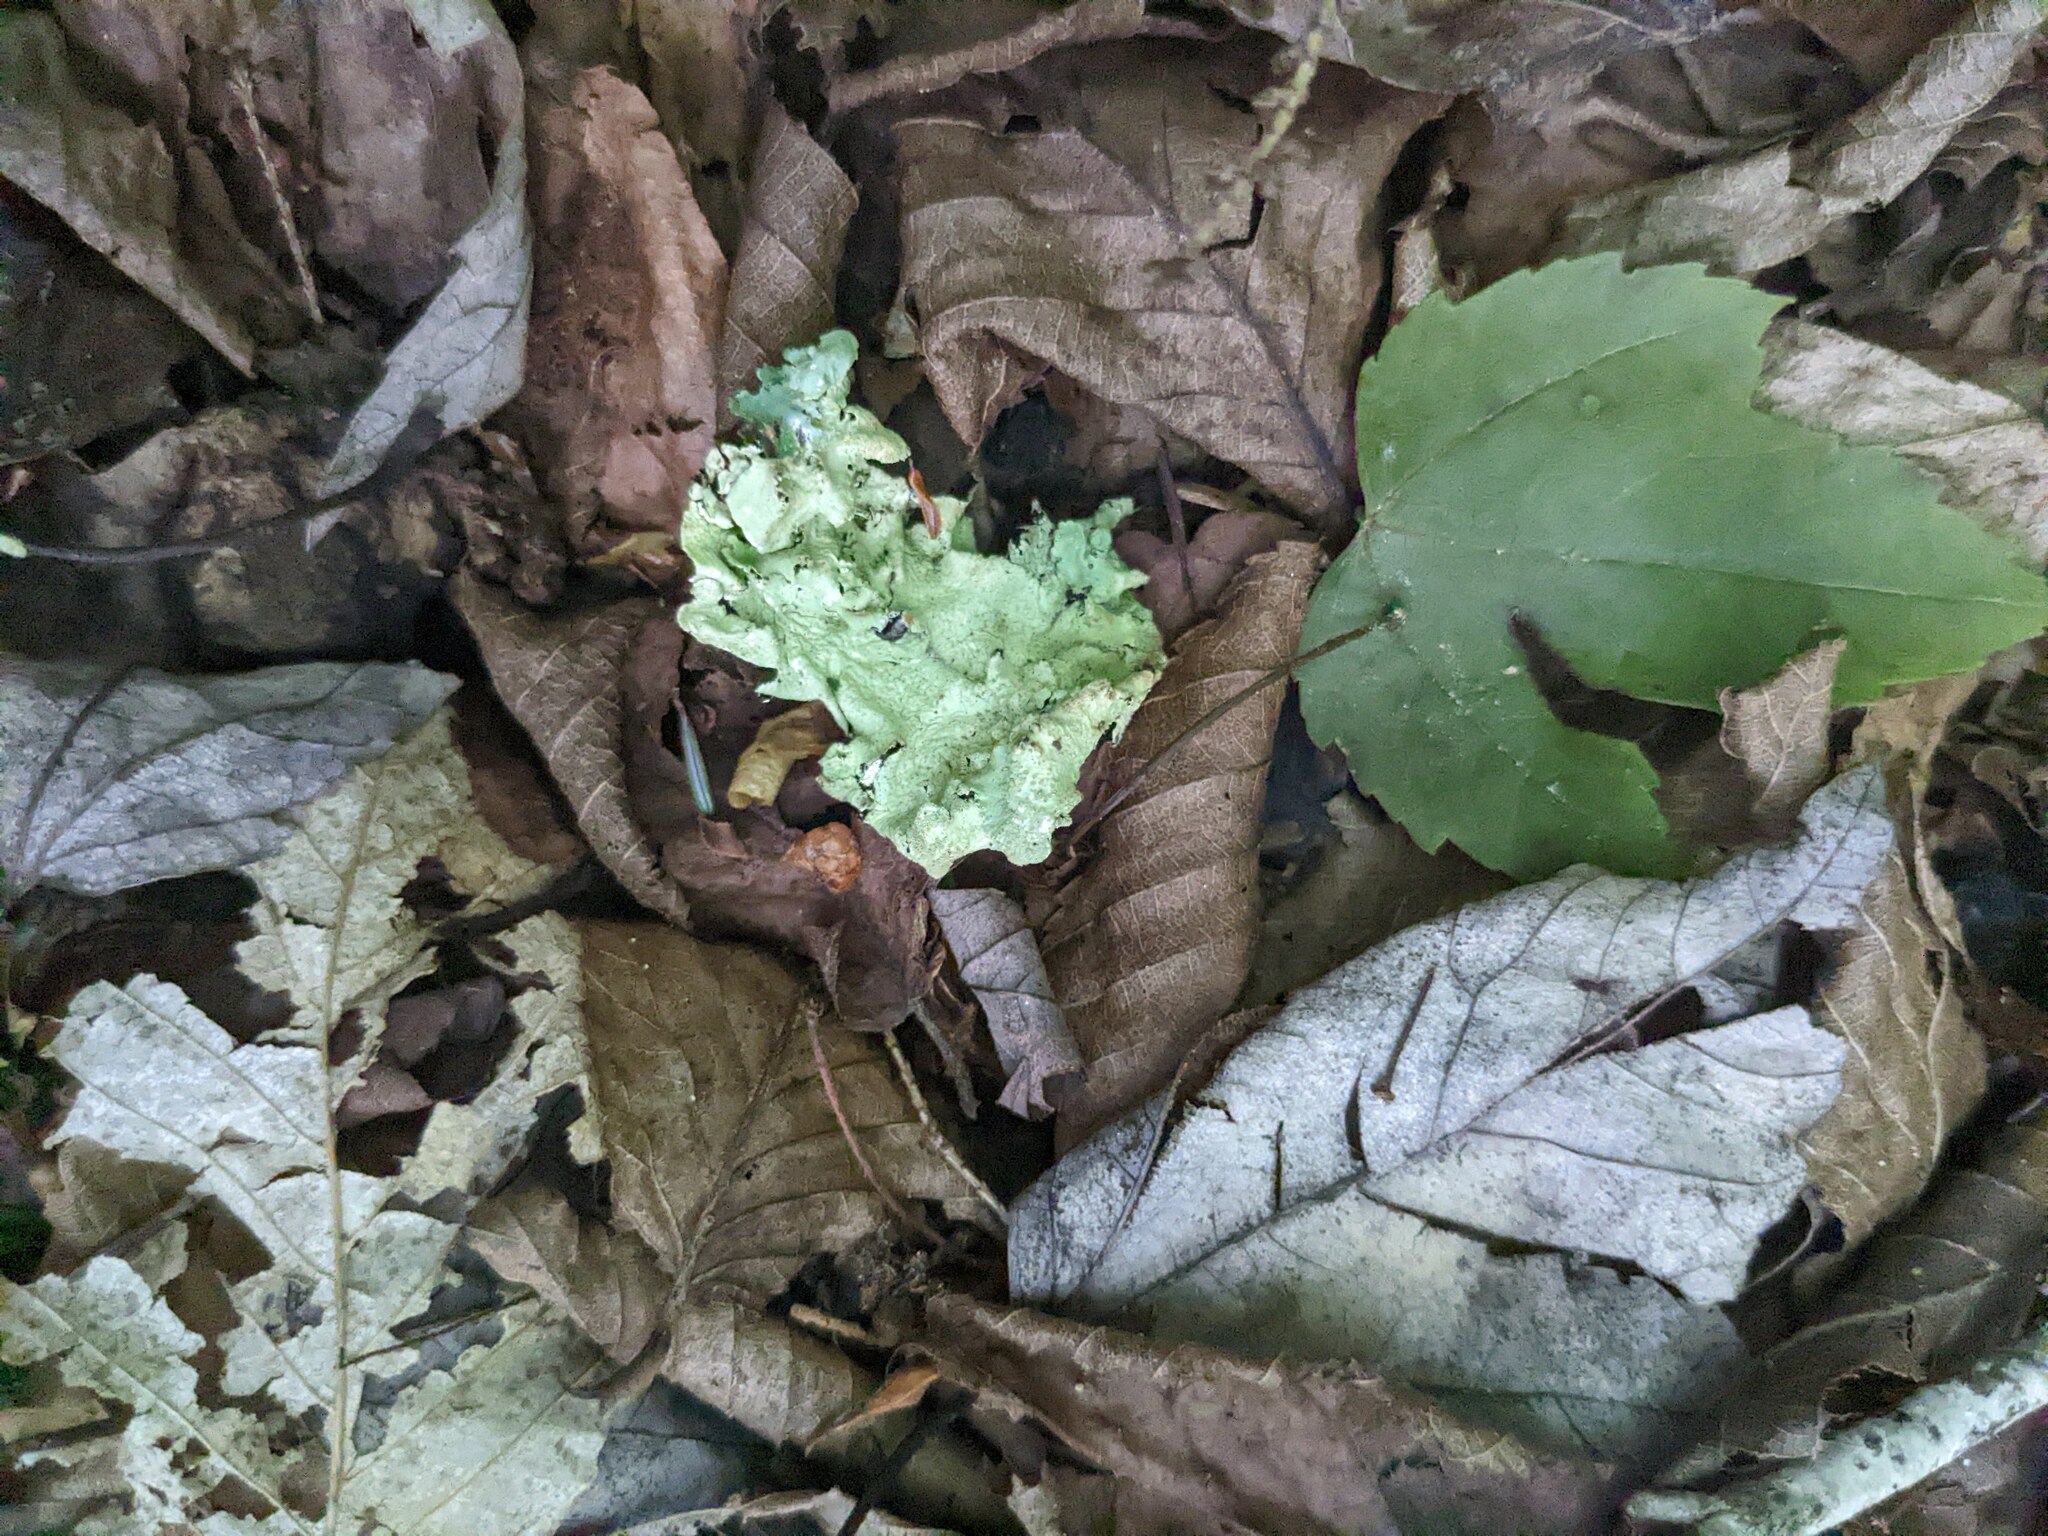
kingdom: Fungi
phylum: Ascomycota
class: Lecanoromycetes
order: Lecanorales
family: Parmeliaceae
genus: Flavoparmelia
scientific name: Flavoparmelia caperata
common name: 40-mile per hour lichen
